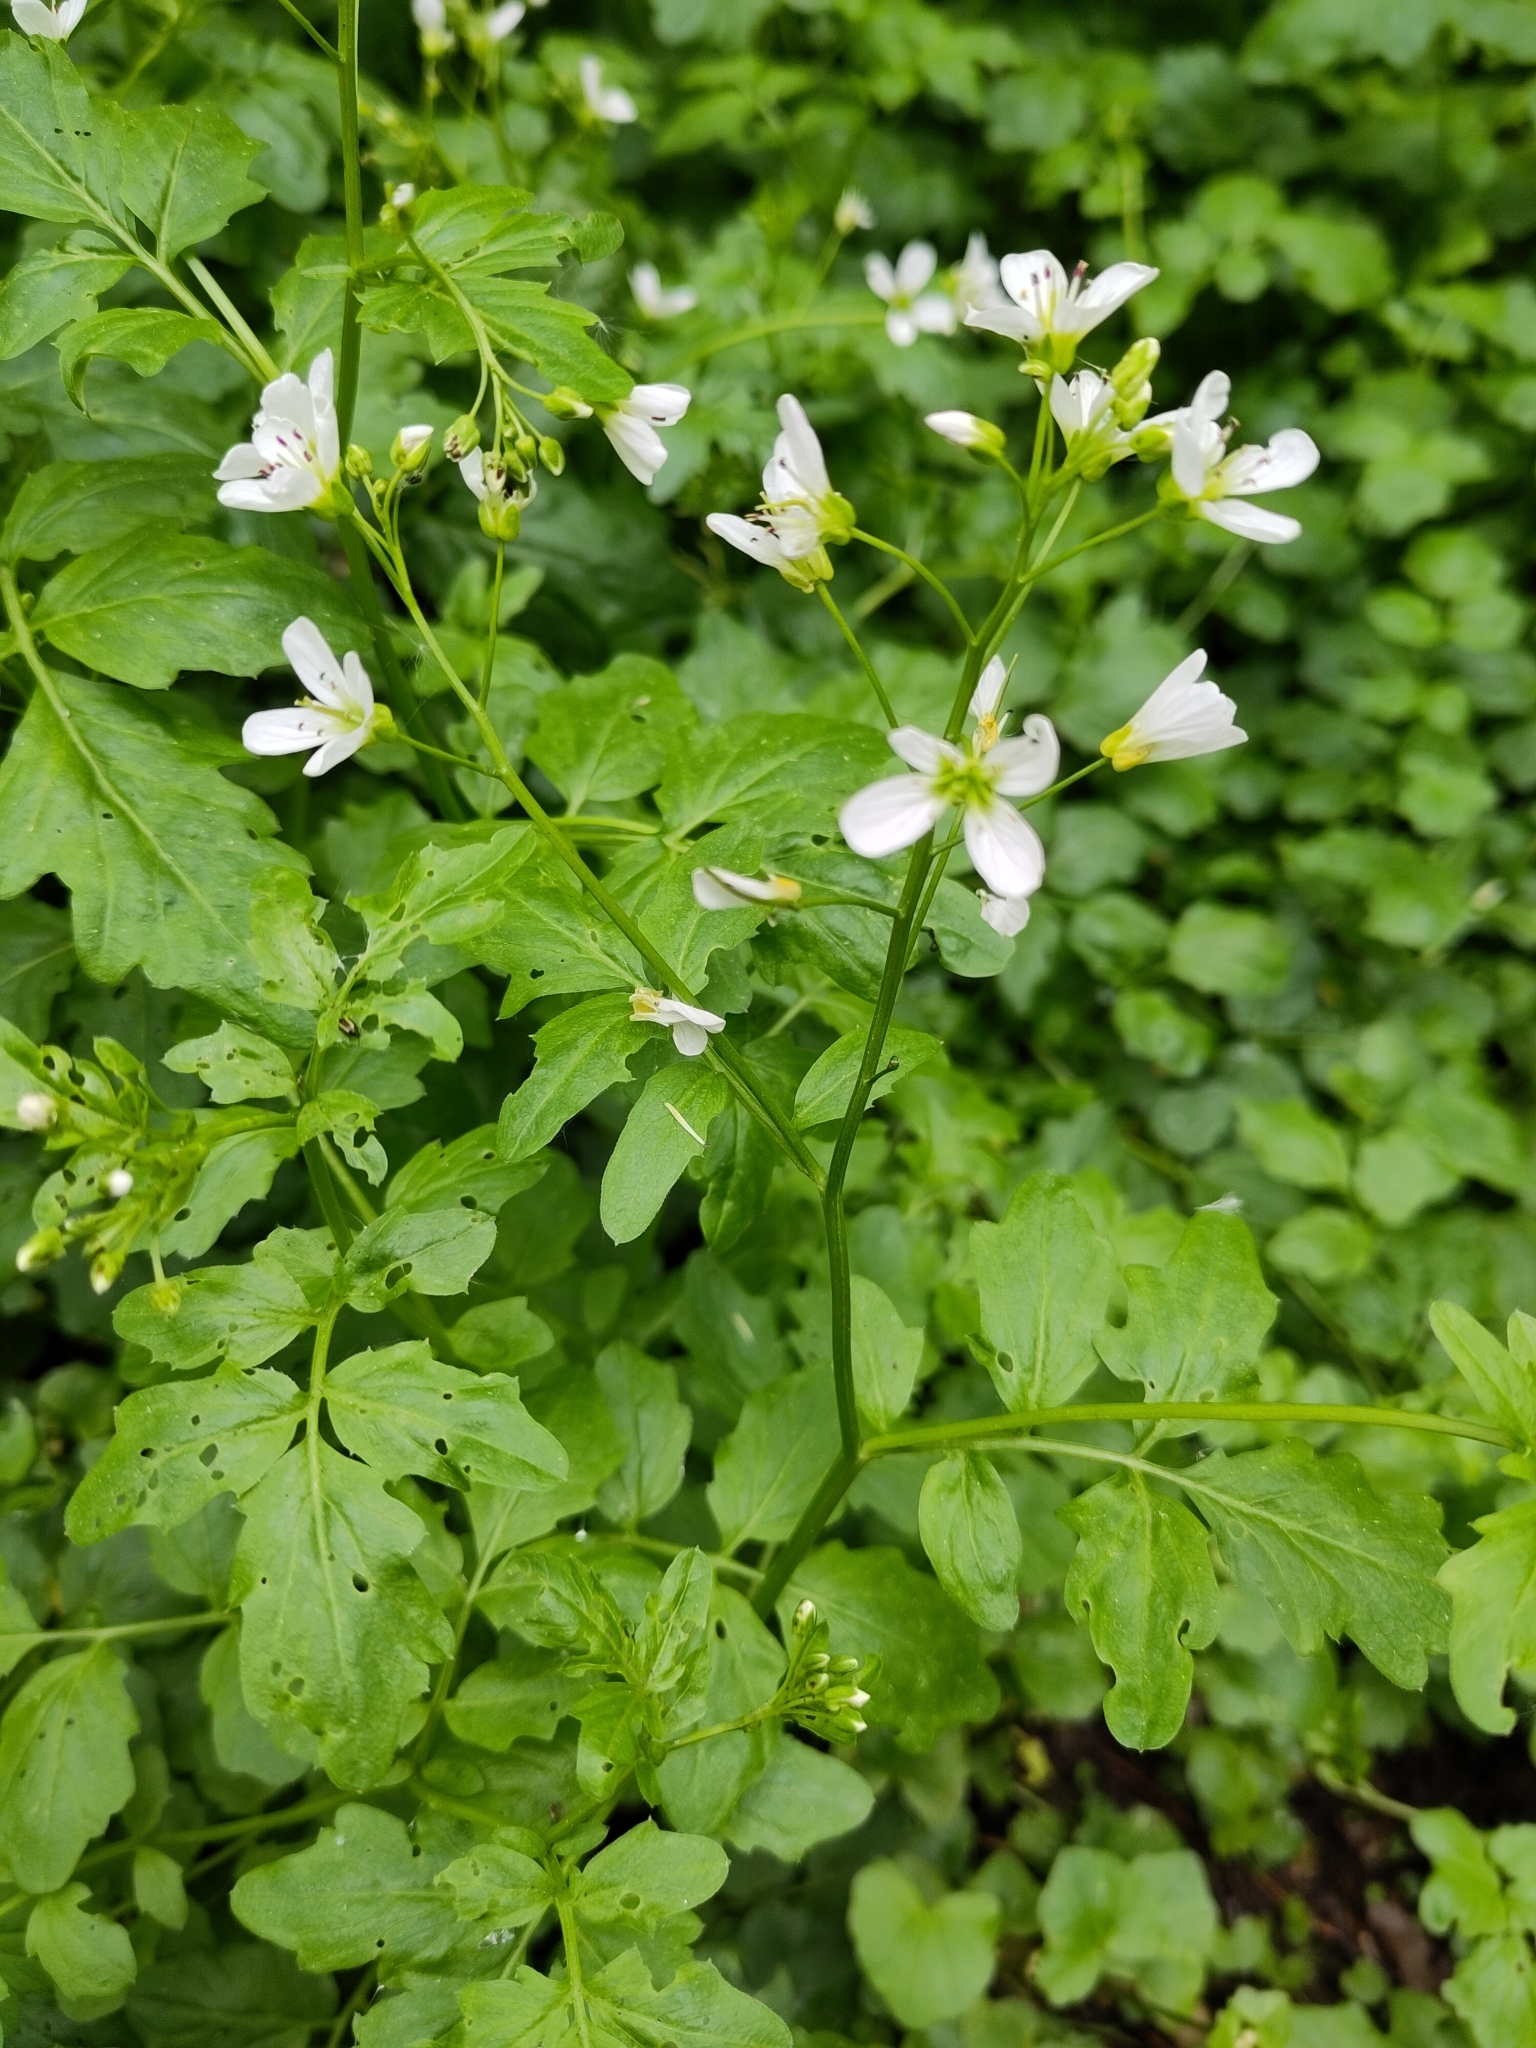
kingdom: Plantae
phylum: Tracheophyta
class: Magnoliopsida
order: Brassicales
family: Brassicaceae
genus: Cardamine
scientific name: Cardamine amara
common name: Large bitter-cress
